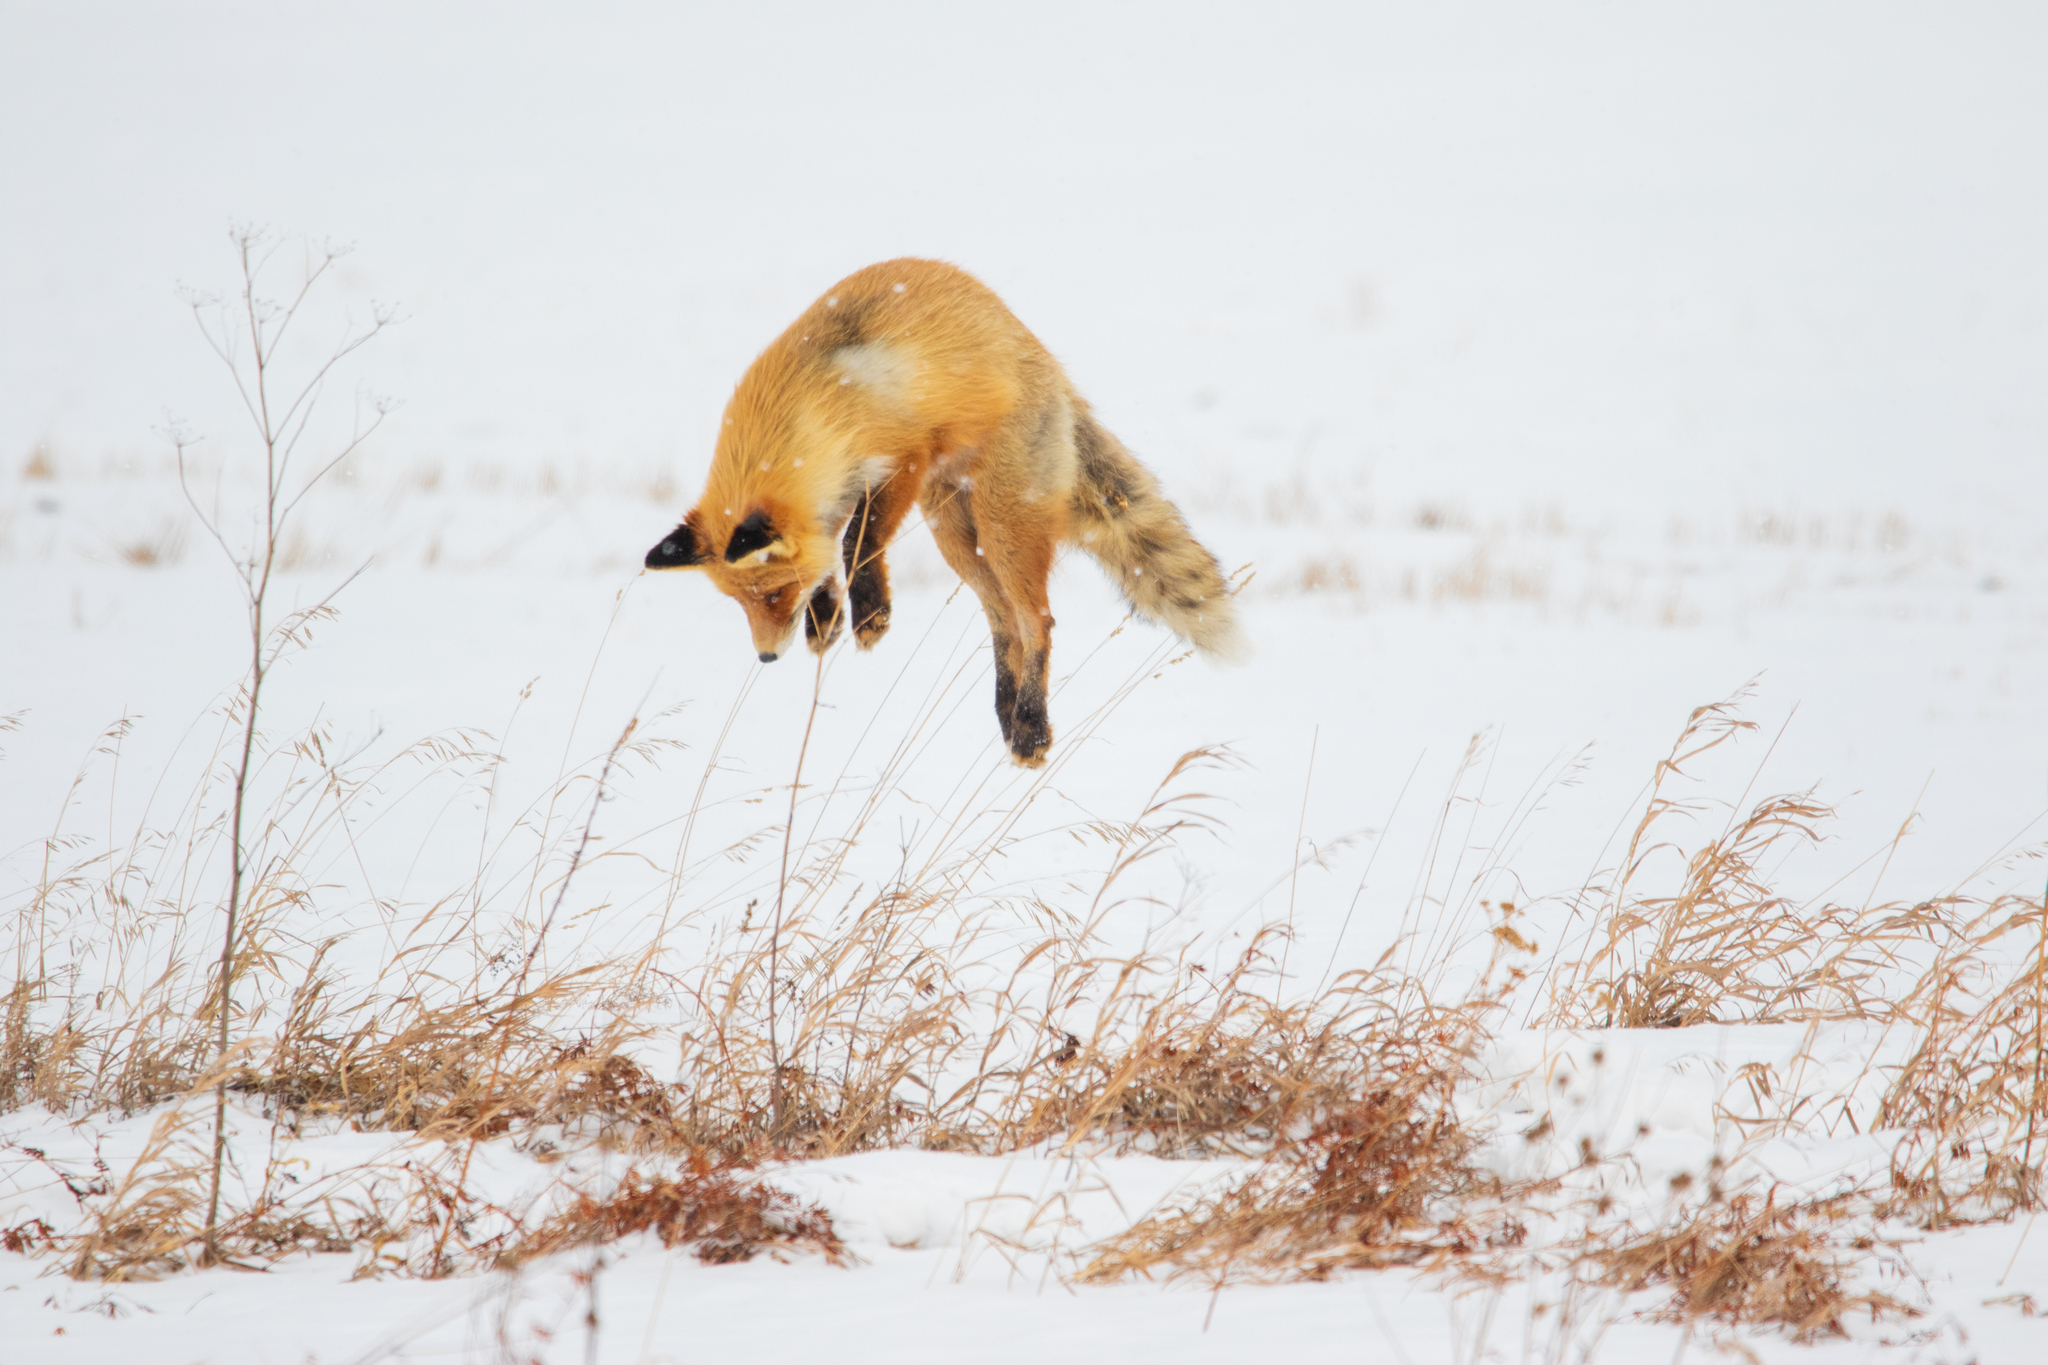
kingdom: Animalia
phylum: Chordata
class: Mammalia
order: Carnivora
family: Canidae
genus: Vulpes
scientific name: Vulpes vulpes
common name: Red fox
